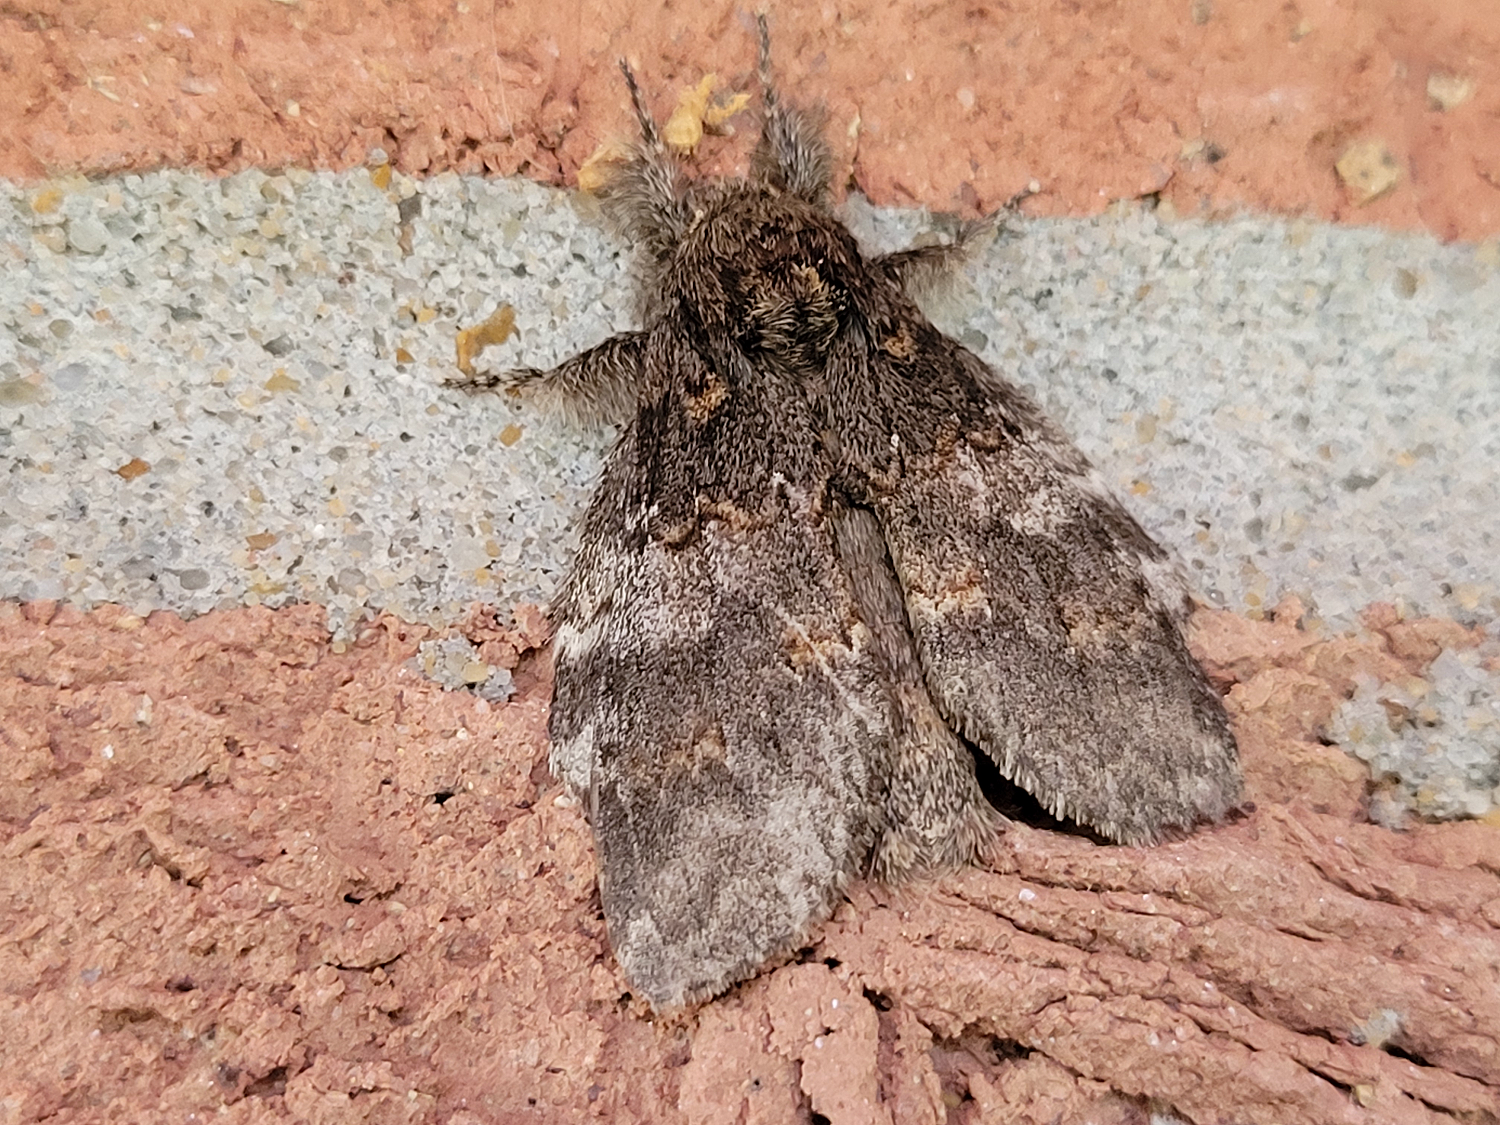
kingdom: Animalia
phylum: Arthropoda
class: Insecta
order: Lepidoptera
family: Notodontidae
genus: Peridea
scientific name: Peridea angulosa
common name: Angulose prominent
